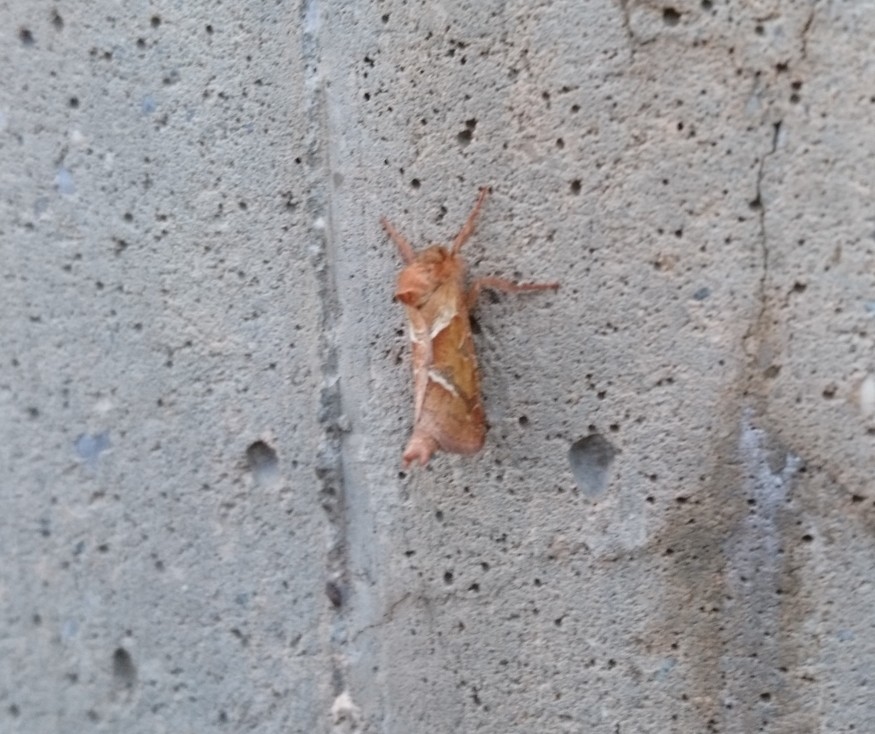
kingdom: Animalia
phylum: Arthropoda
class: Insecta
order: Lepidoptera
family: Hepialidae
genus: Triodia
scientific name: Triodia sylvina
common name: Orange swift
